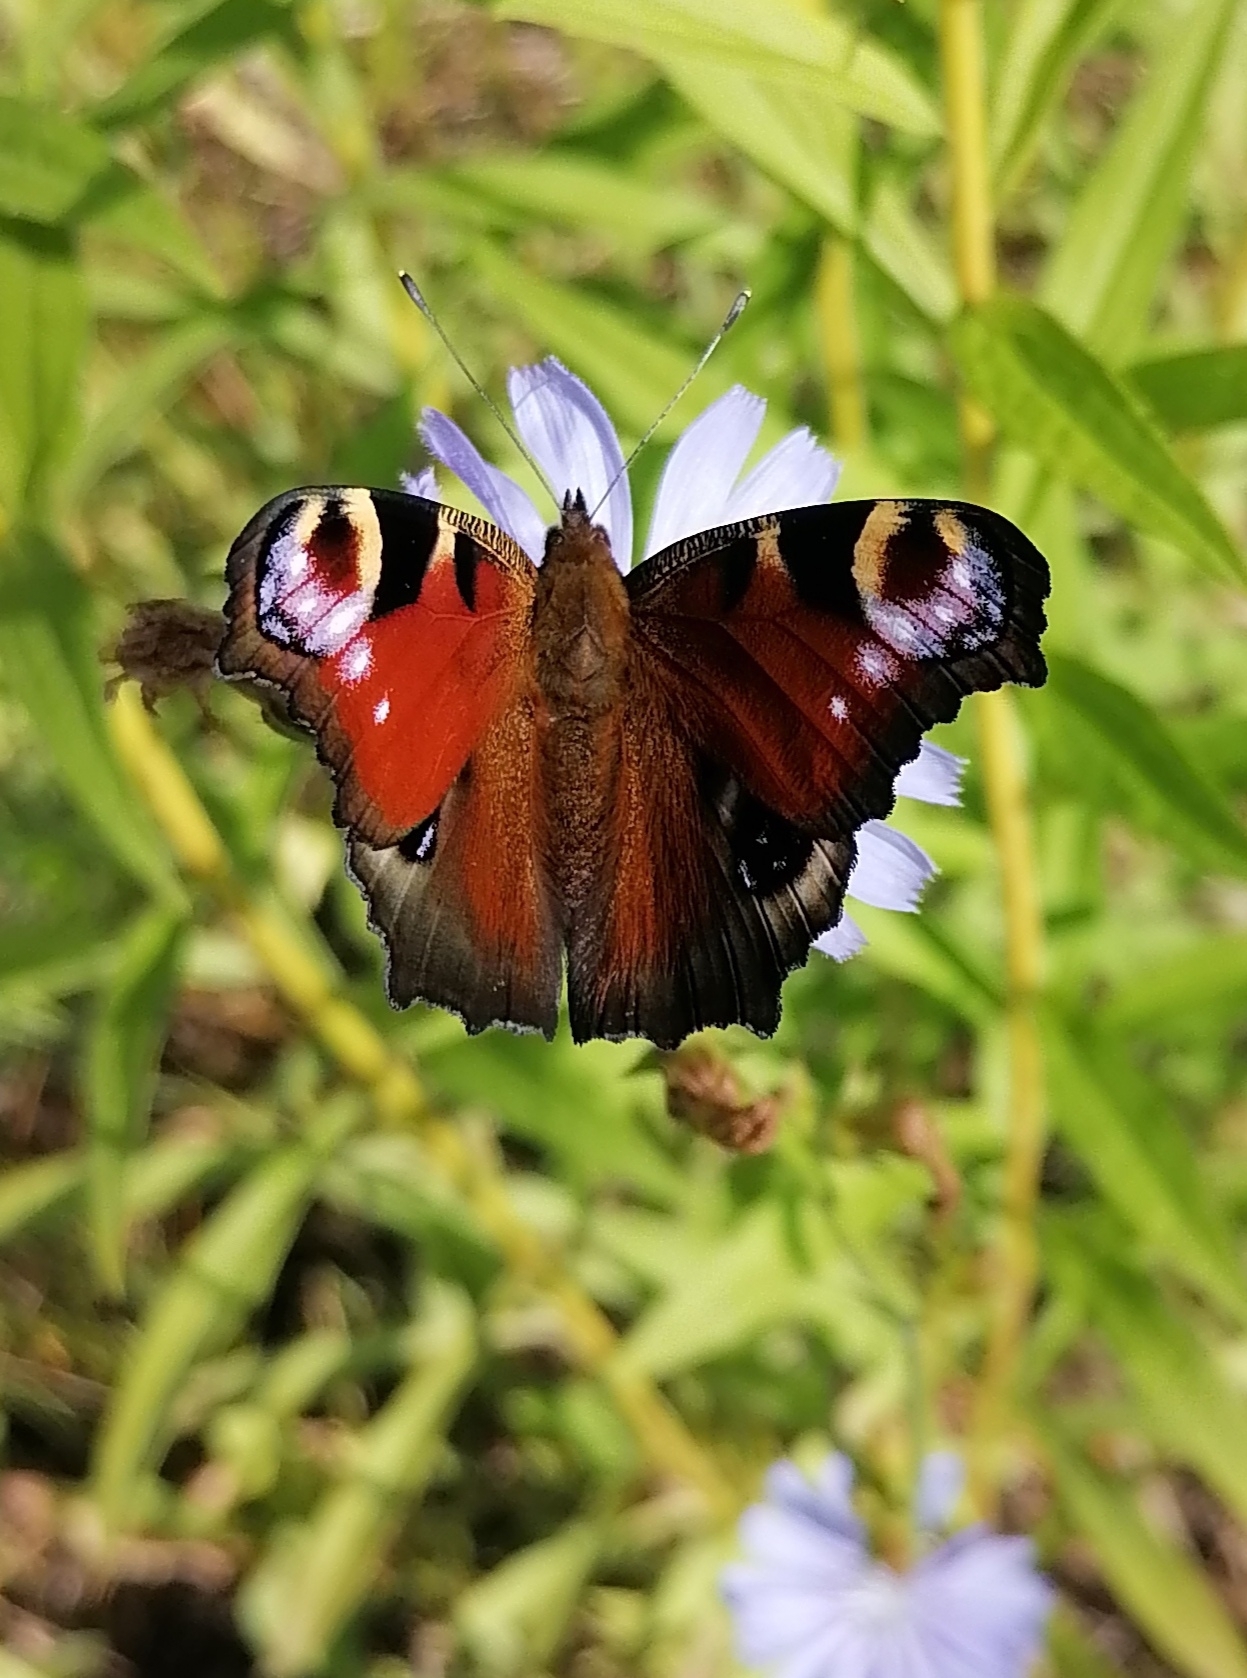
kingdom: Animalia
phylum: Arthropoda
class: Insecta
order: Lepidoptera
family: Nymphalidae
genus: Aglais
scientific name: Aglais io
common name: Peacock
